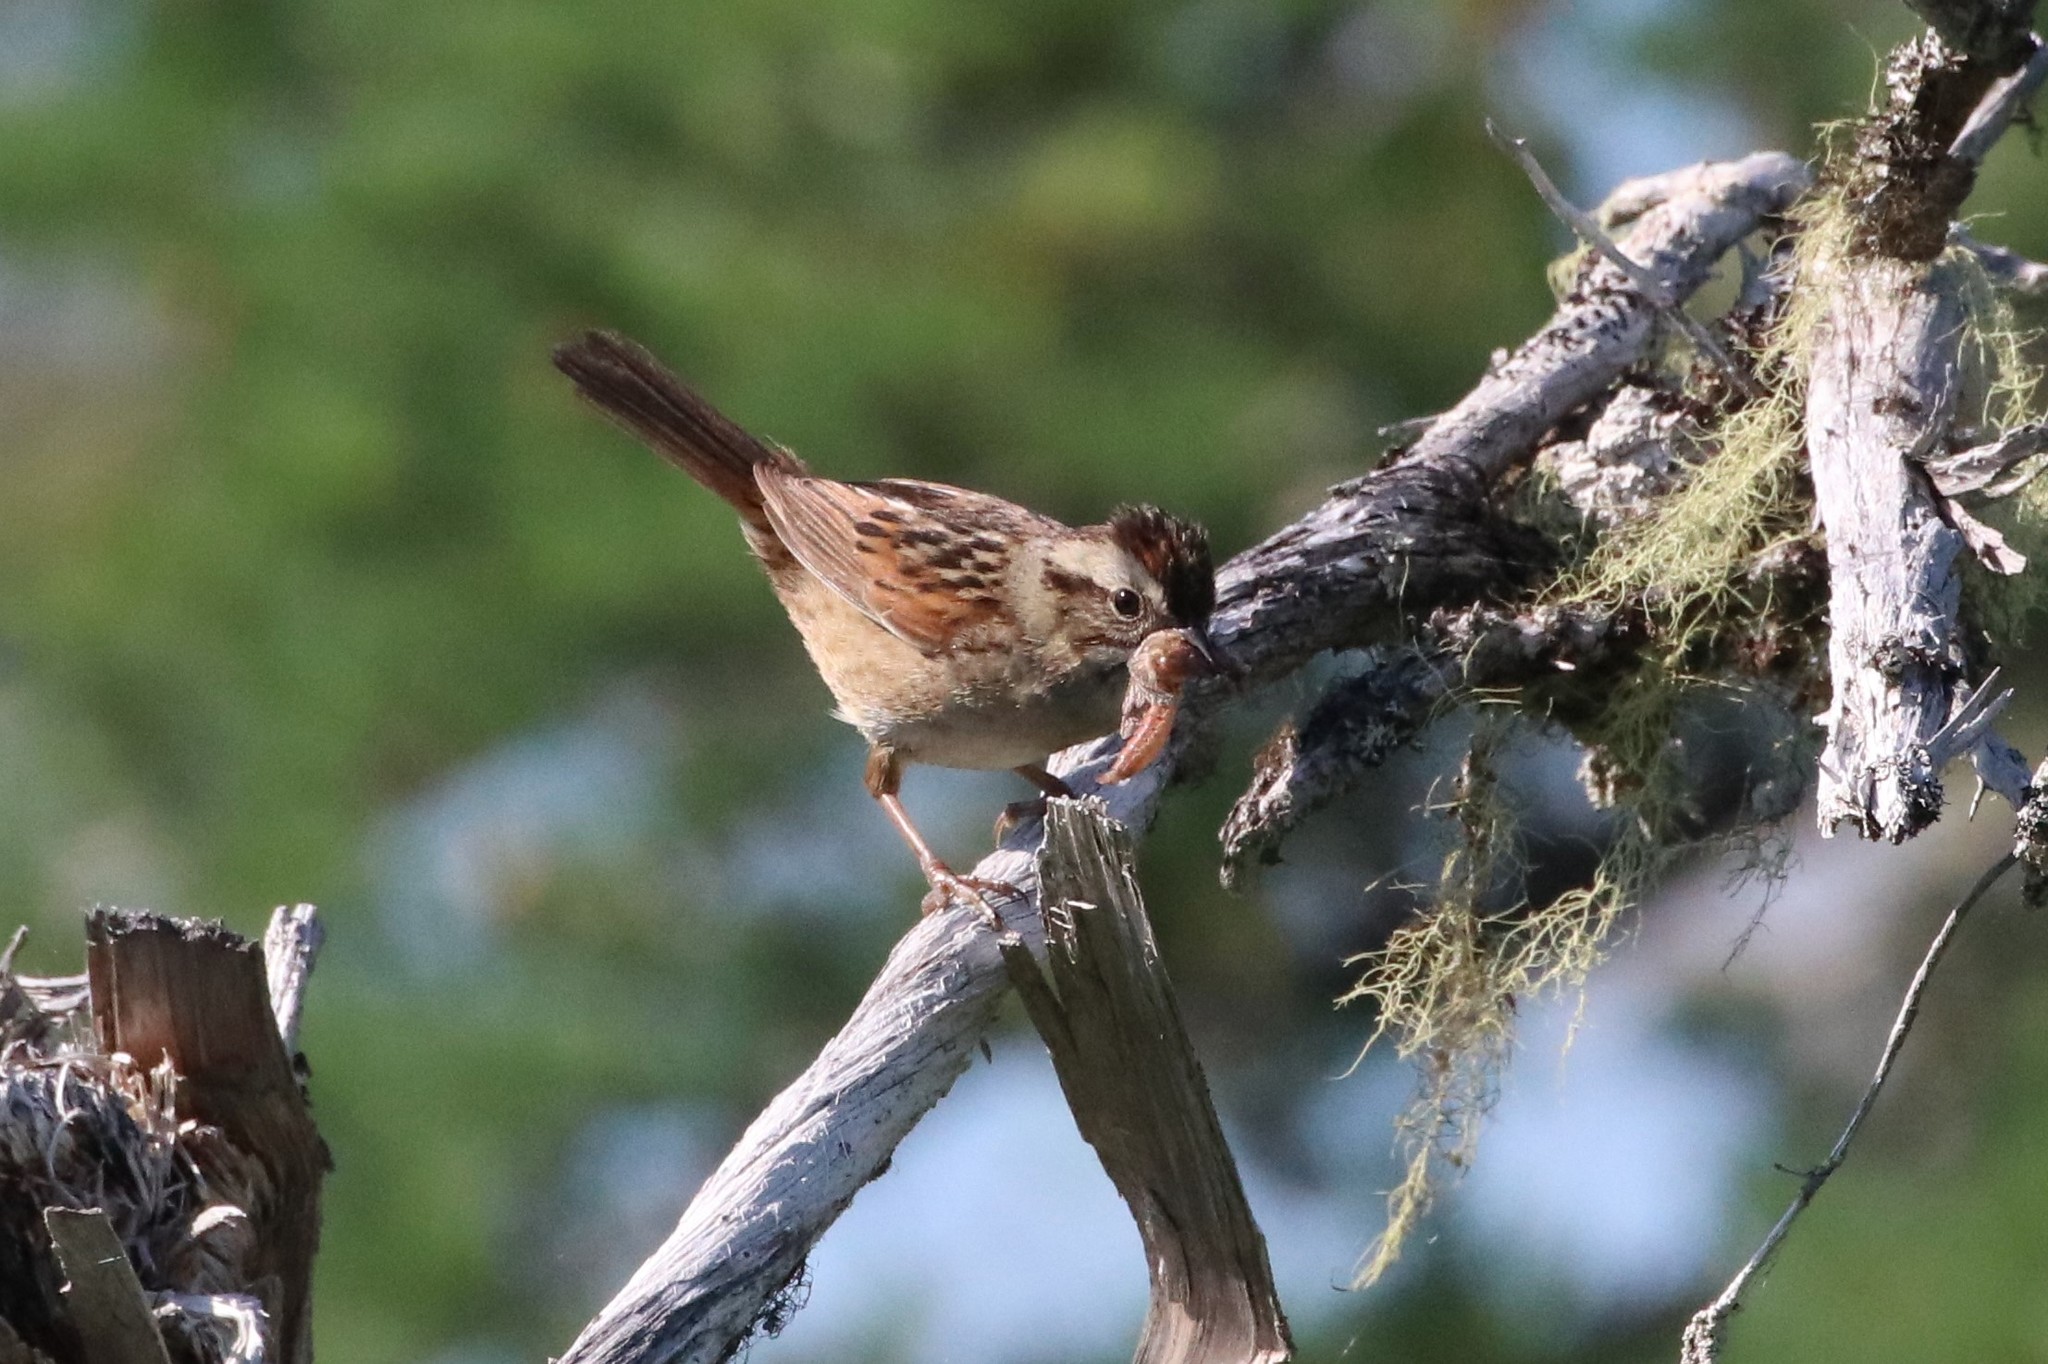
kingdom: Animalia
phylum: Chordata
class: Aves
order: Passeriformes
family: Passerellidae
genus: Melospiza
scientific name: Melospiza georgiana
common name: Swamp sparrow
